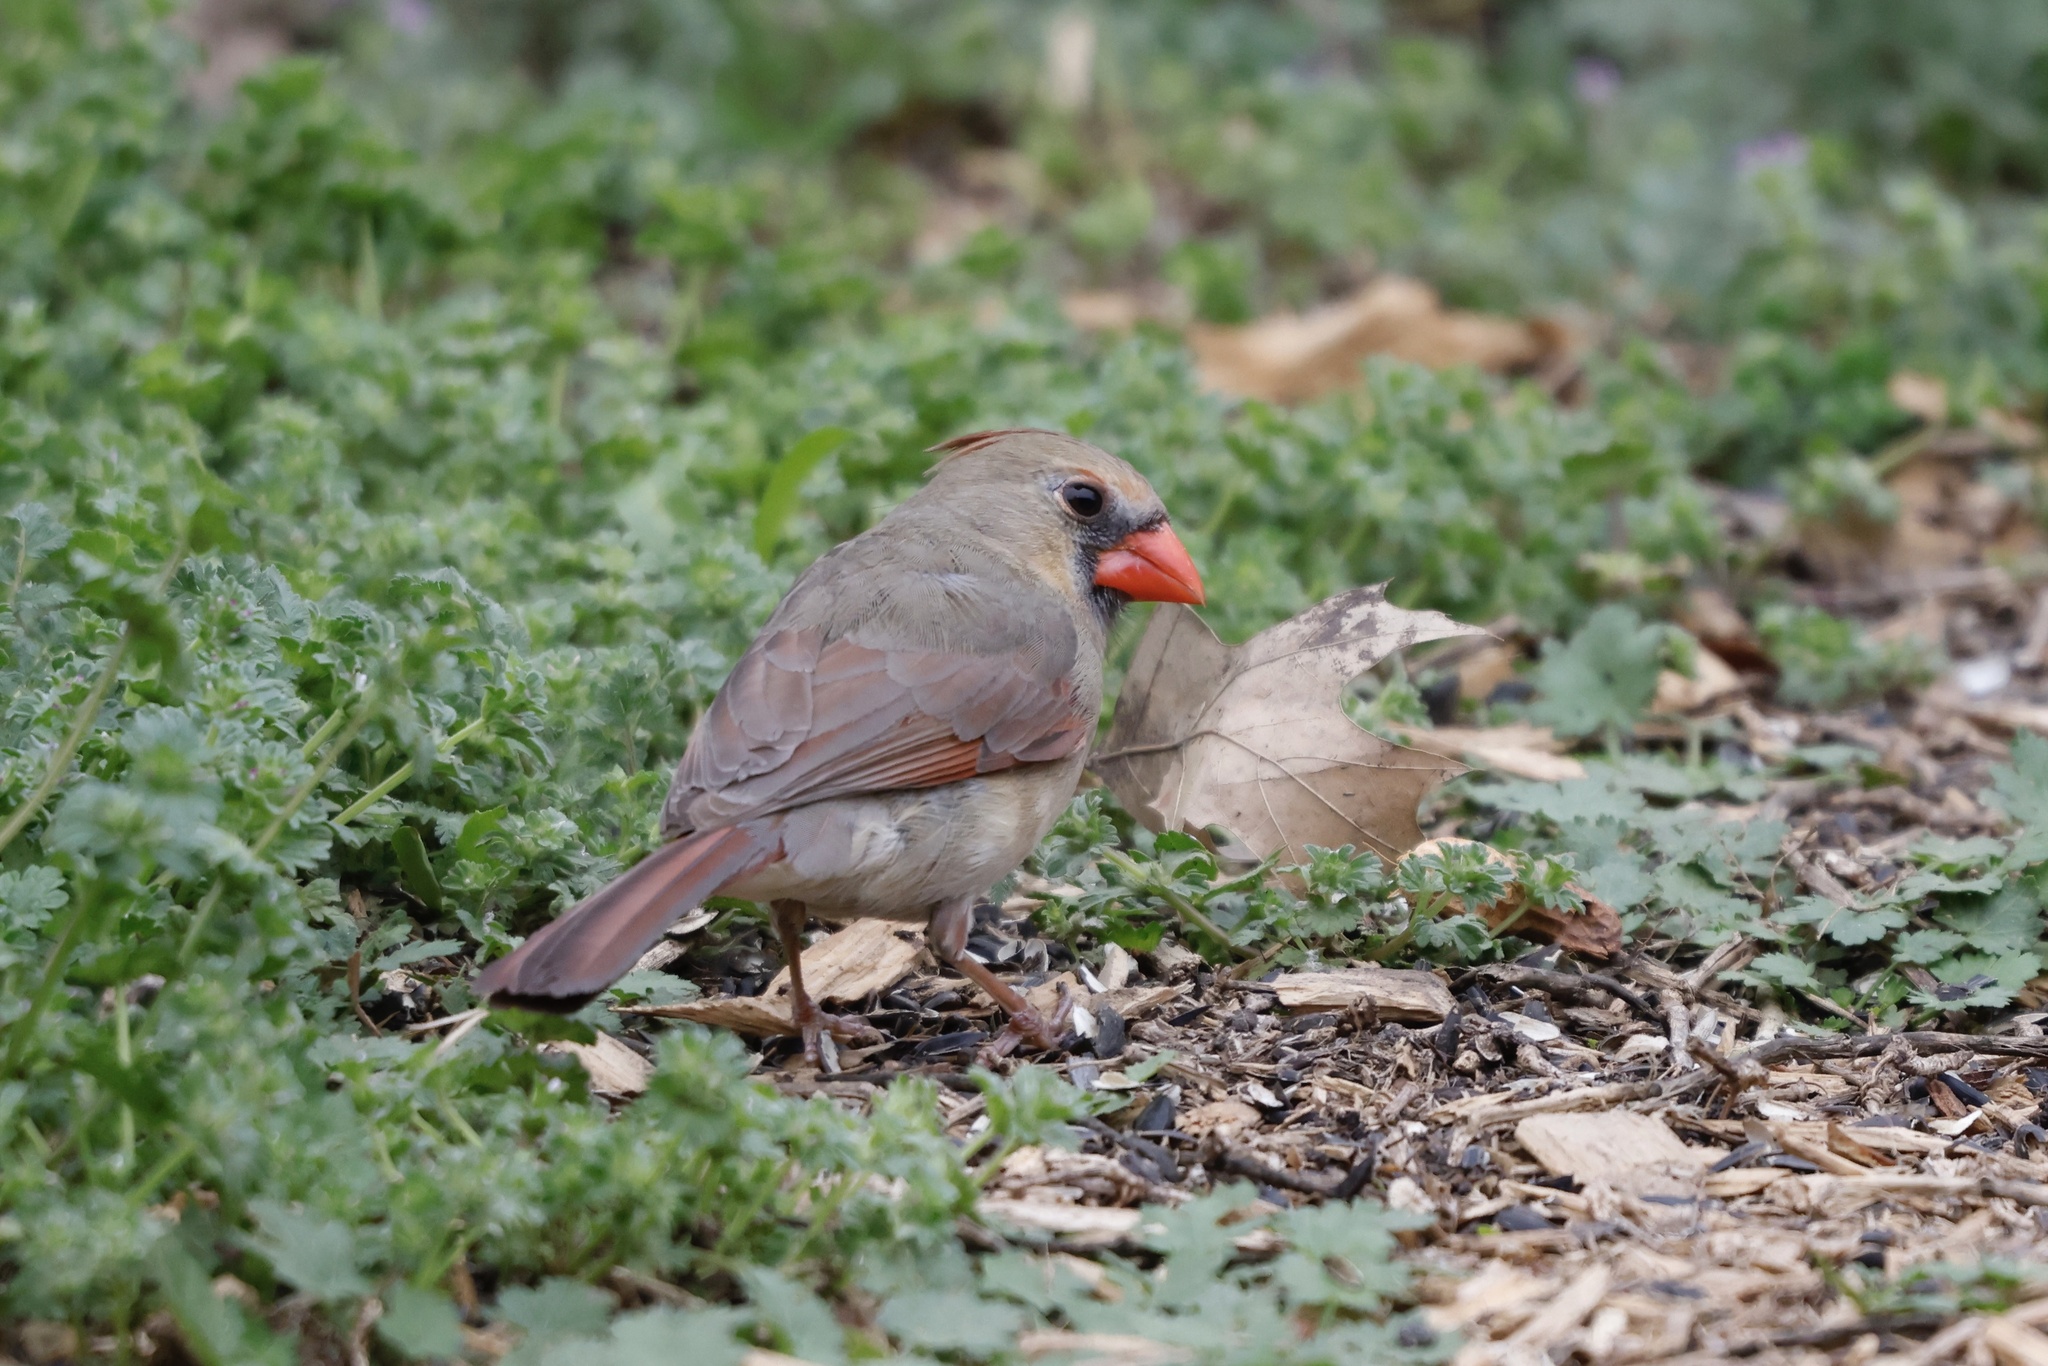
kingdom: Animalia
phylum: Chordata
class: Aves
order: Passeriformes
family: Cardinalidae
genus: Cardinalis
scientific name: Cardinalis cardinalis
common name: Northern cardinal
